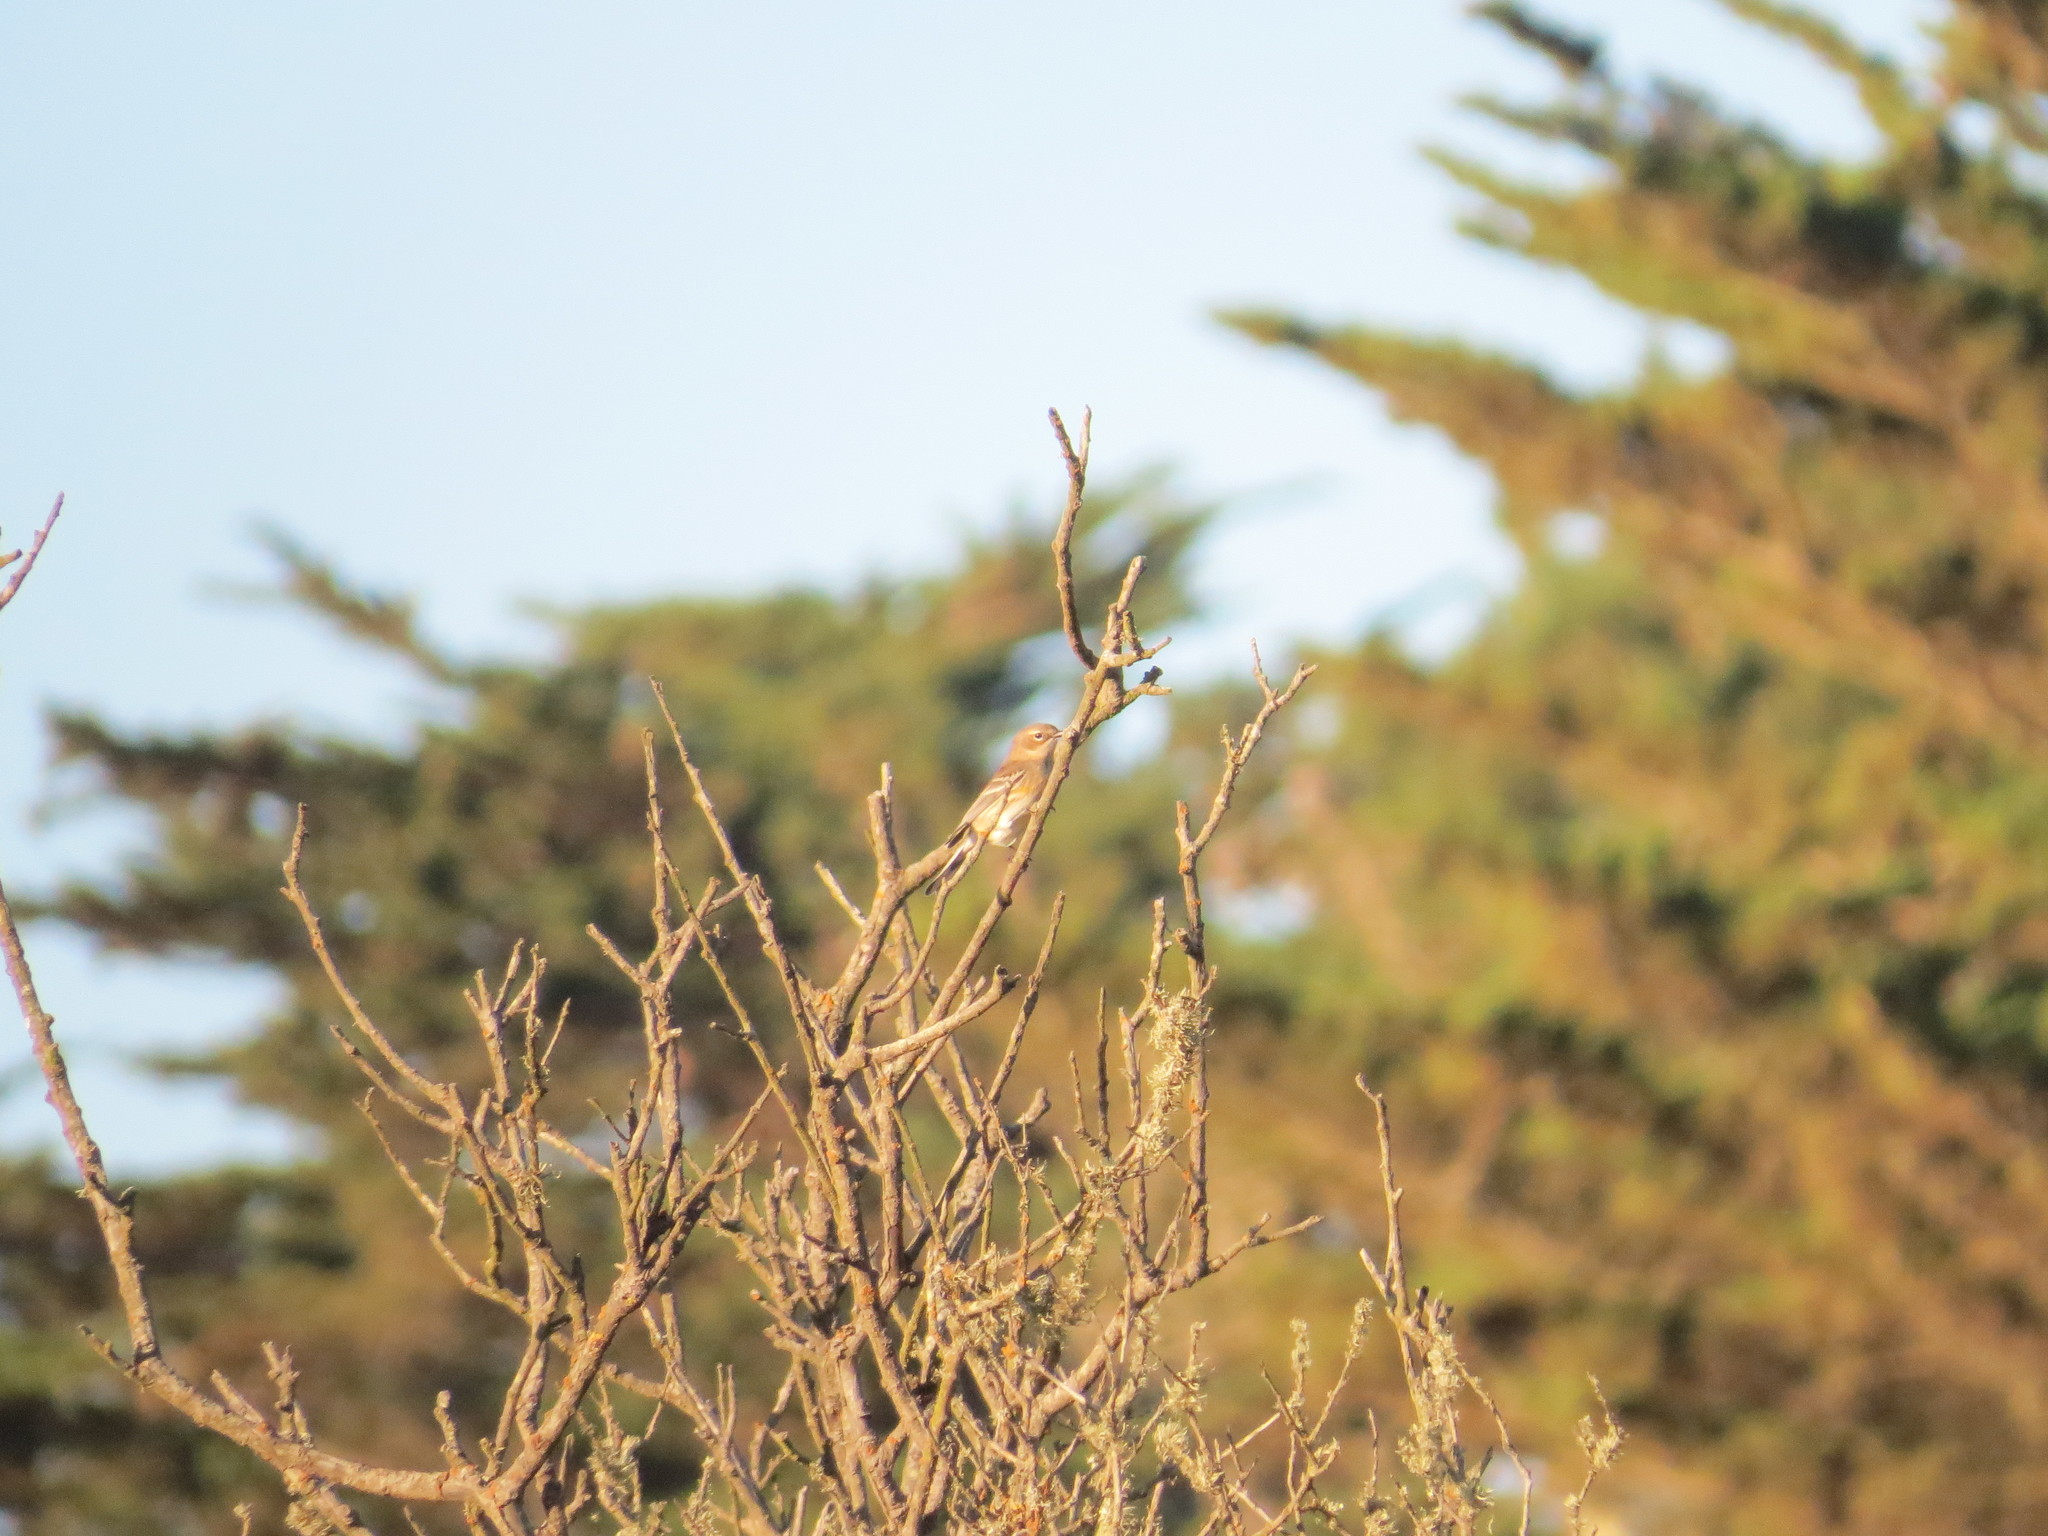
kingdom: Animalia
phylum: Chordata
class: Aves
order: Passeriformes
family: Parulidae
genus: Setophaga
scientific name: Setophaga coronata
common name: Myrtle warbler
